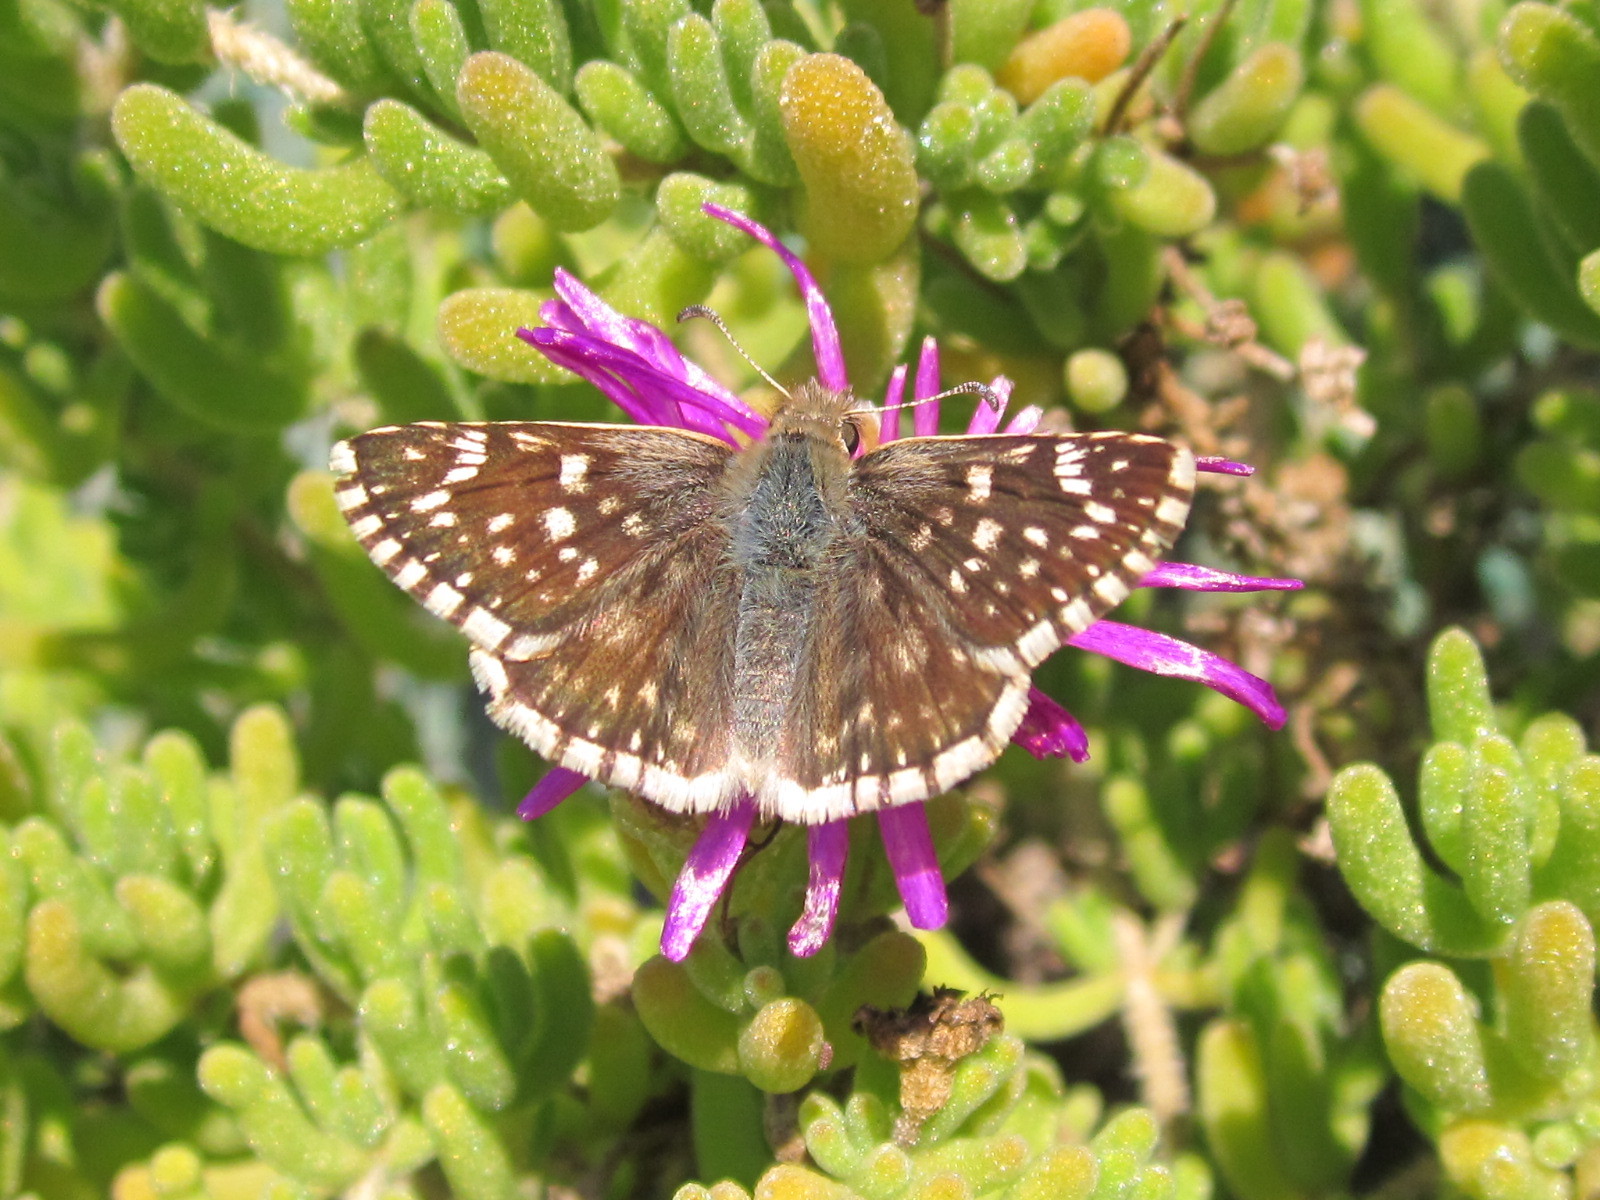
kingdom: Animalia
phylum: Arthropoda
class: Insecta
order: Lepidoptera
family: Hesperiidae
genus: Heliopetes
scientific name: Heliopetes americanus
